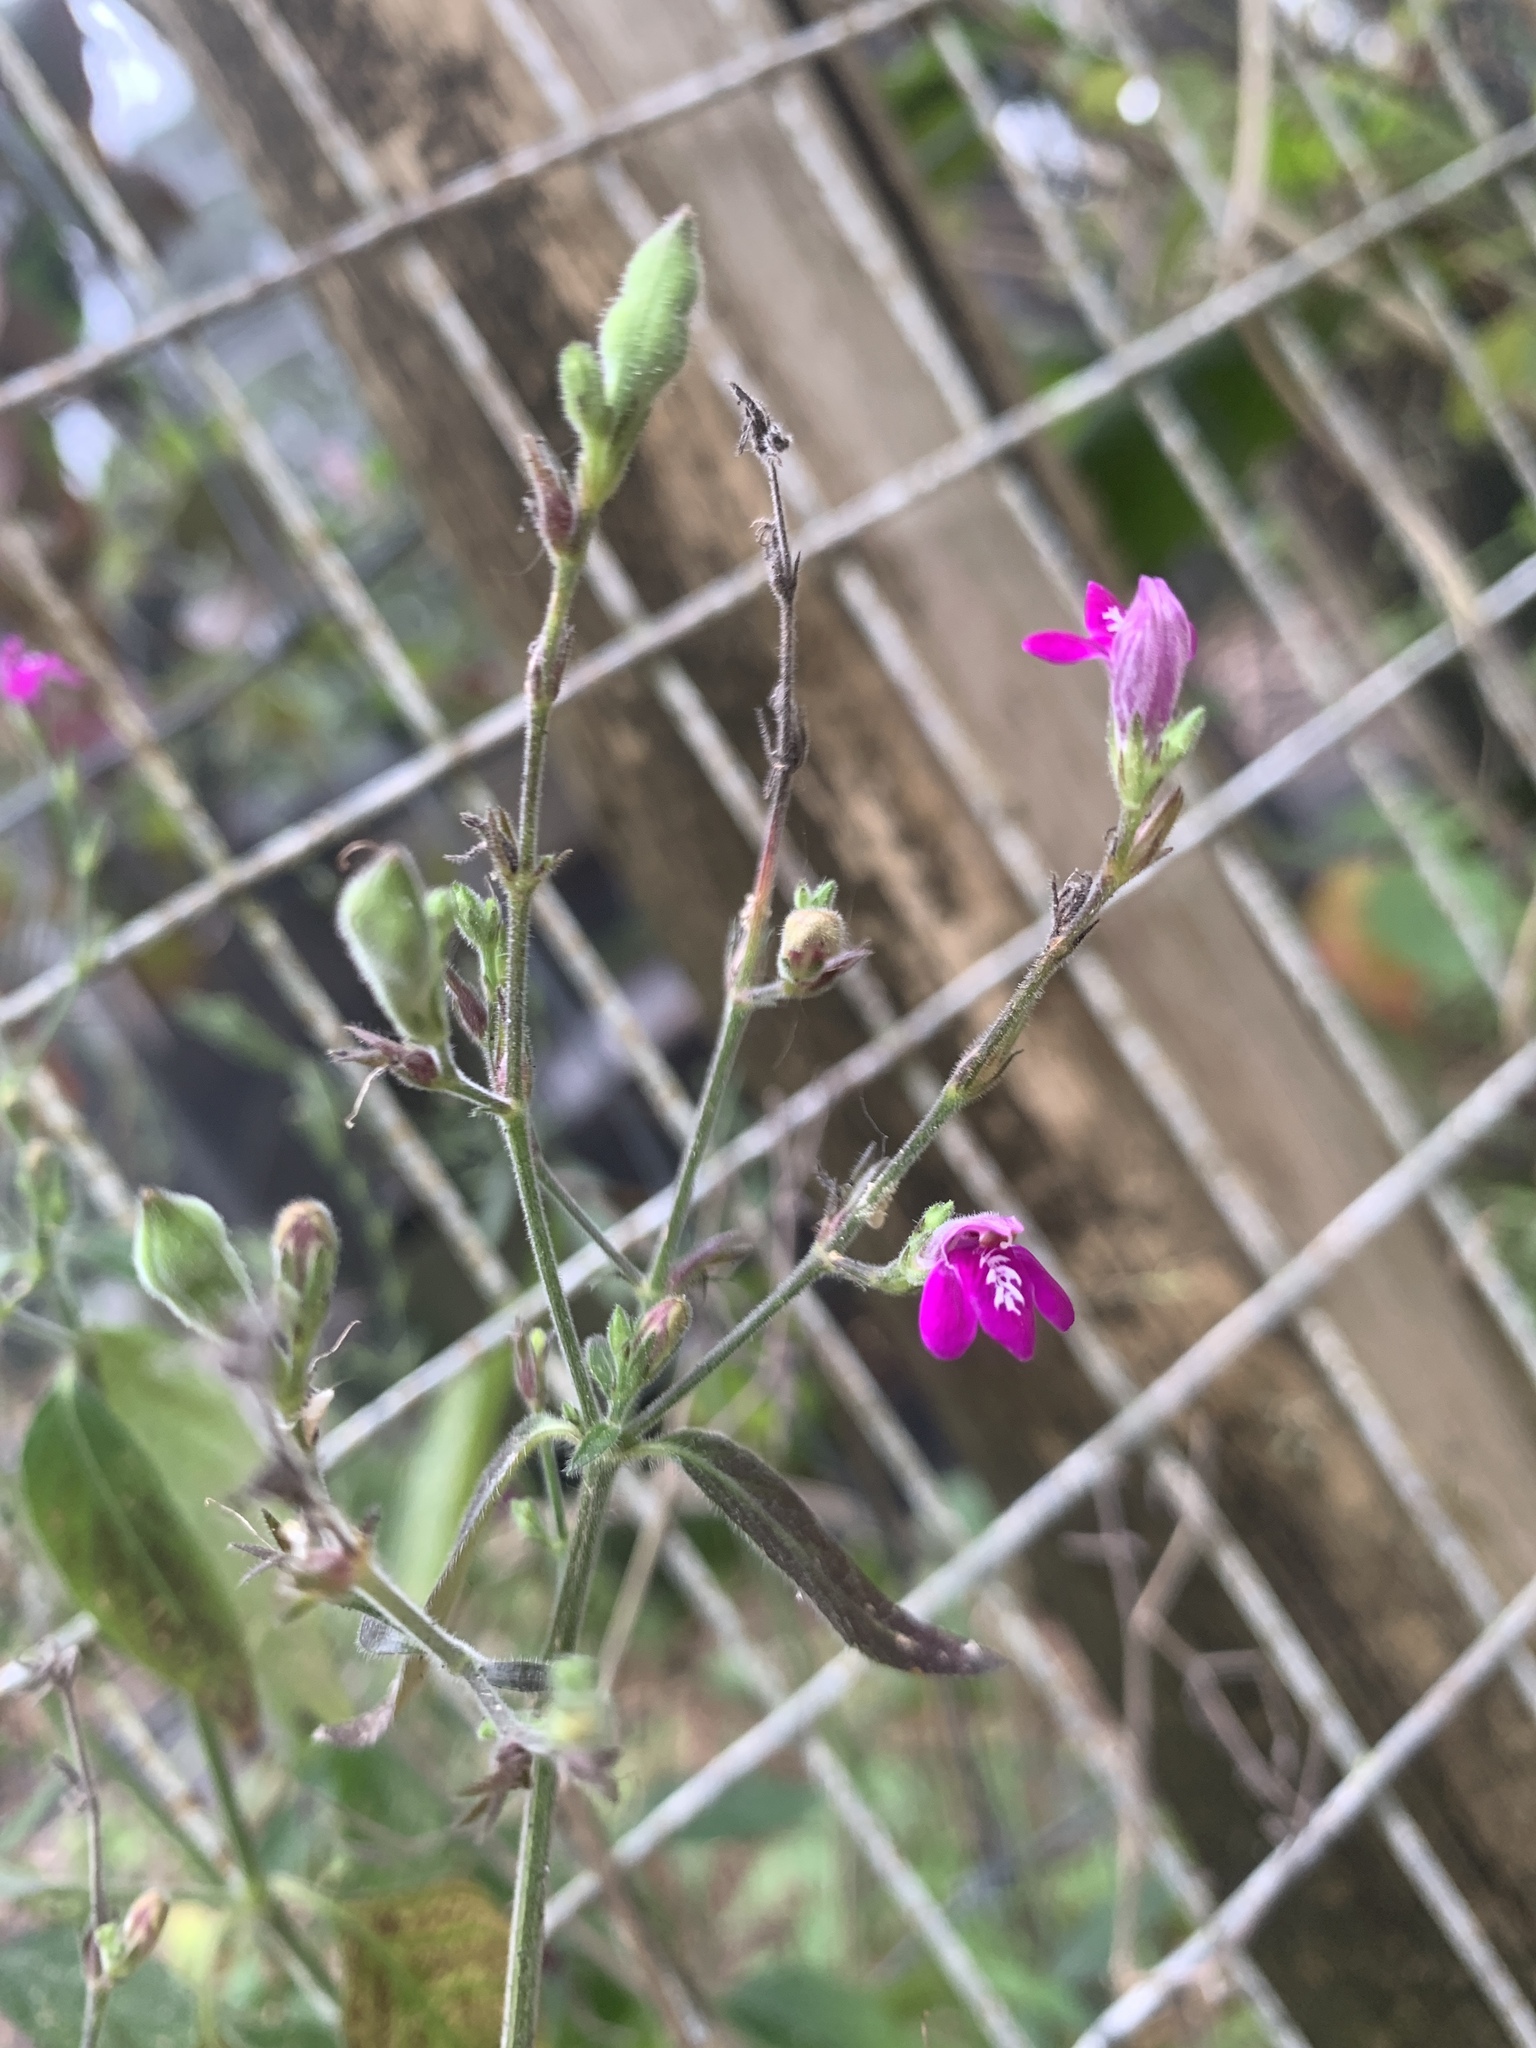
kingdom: Plantae
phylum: Tracheophyta
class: Magnoliopsida
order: Lamiales
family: Acanthaceae
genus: Justicia
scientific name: Justicia pringlei
